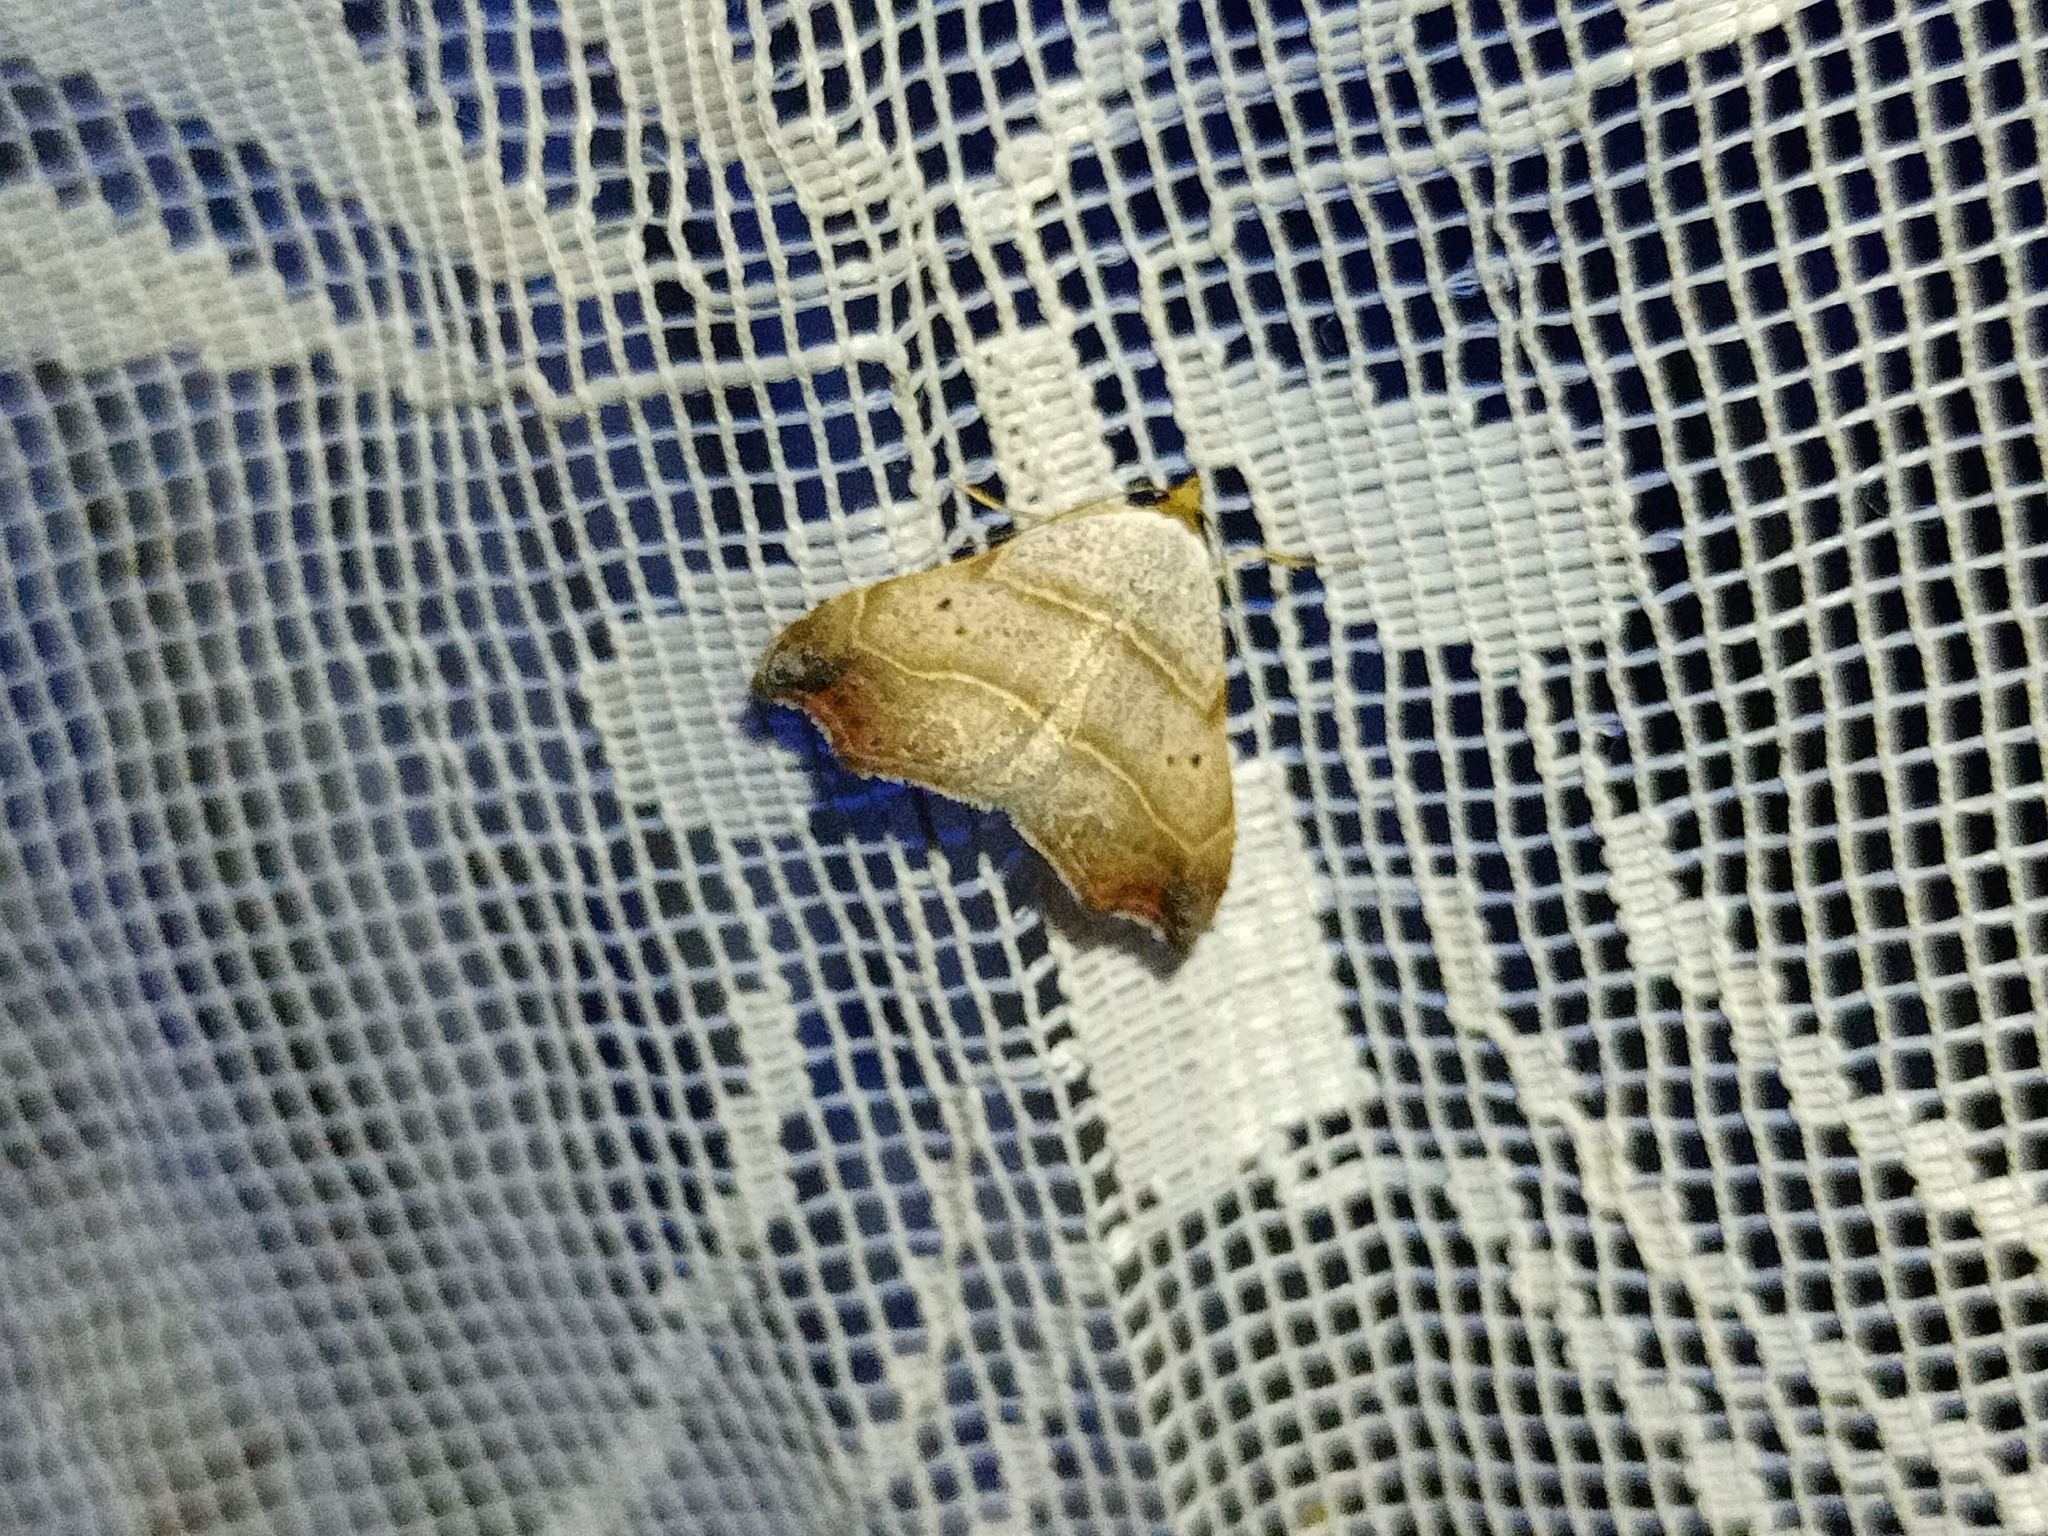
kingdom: Animalia
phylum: Arthropoda
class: Insecta
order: Lepidoptera
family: Erebidae
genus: Laspeyria
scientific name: Laspeyria flexula
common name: Beautiful hook-tip
